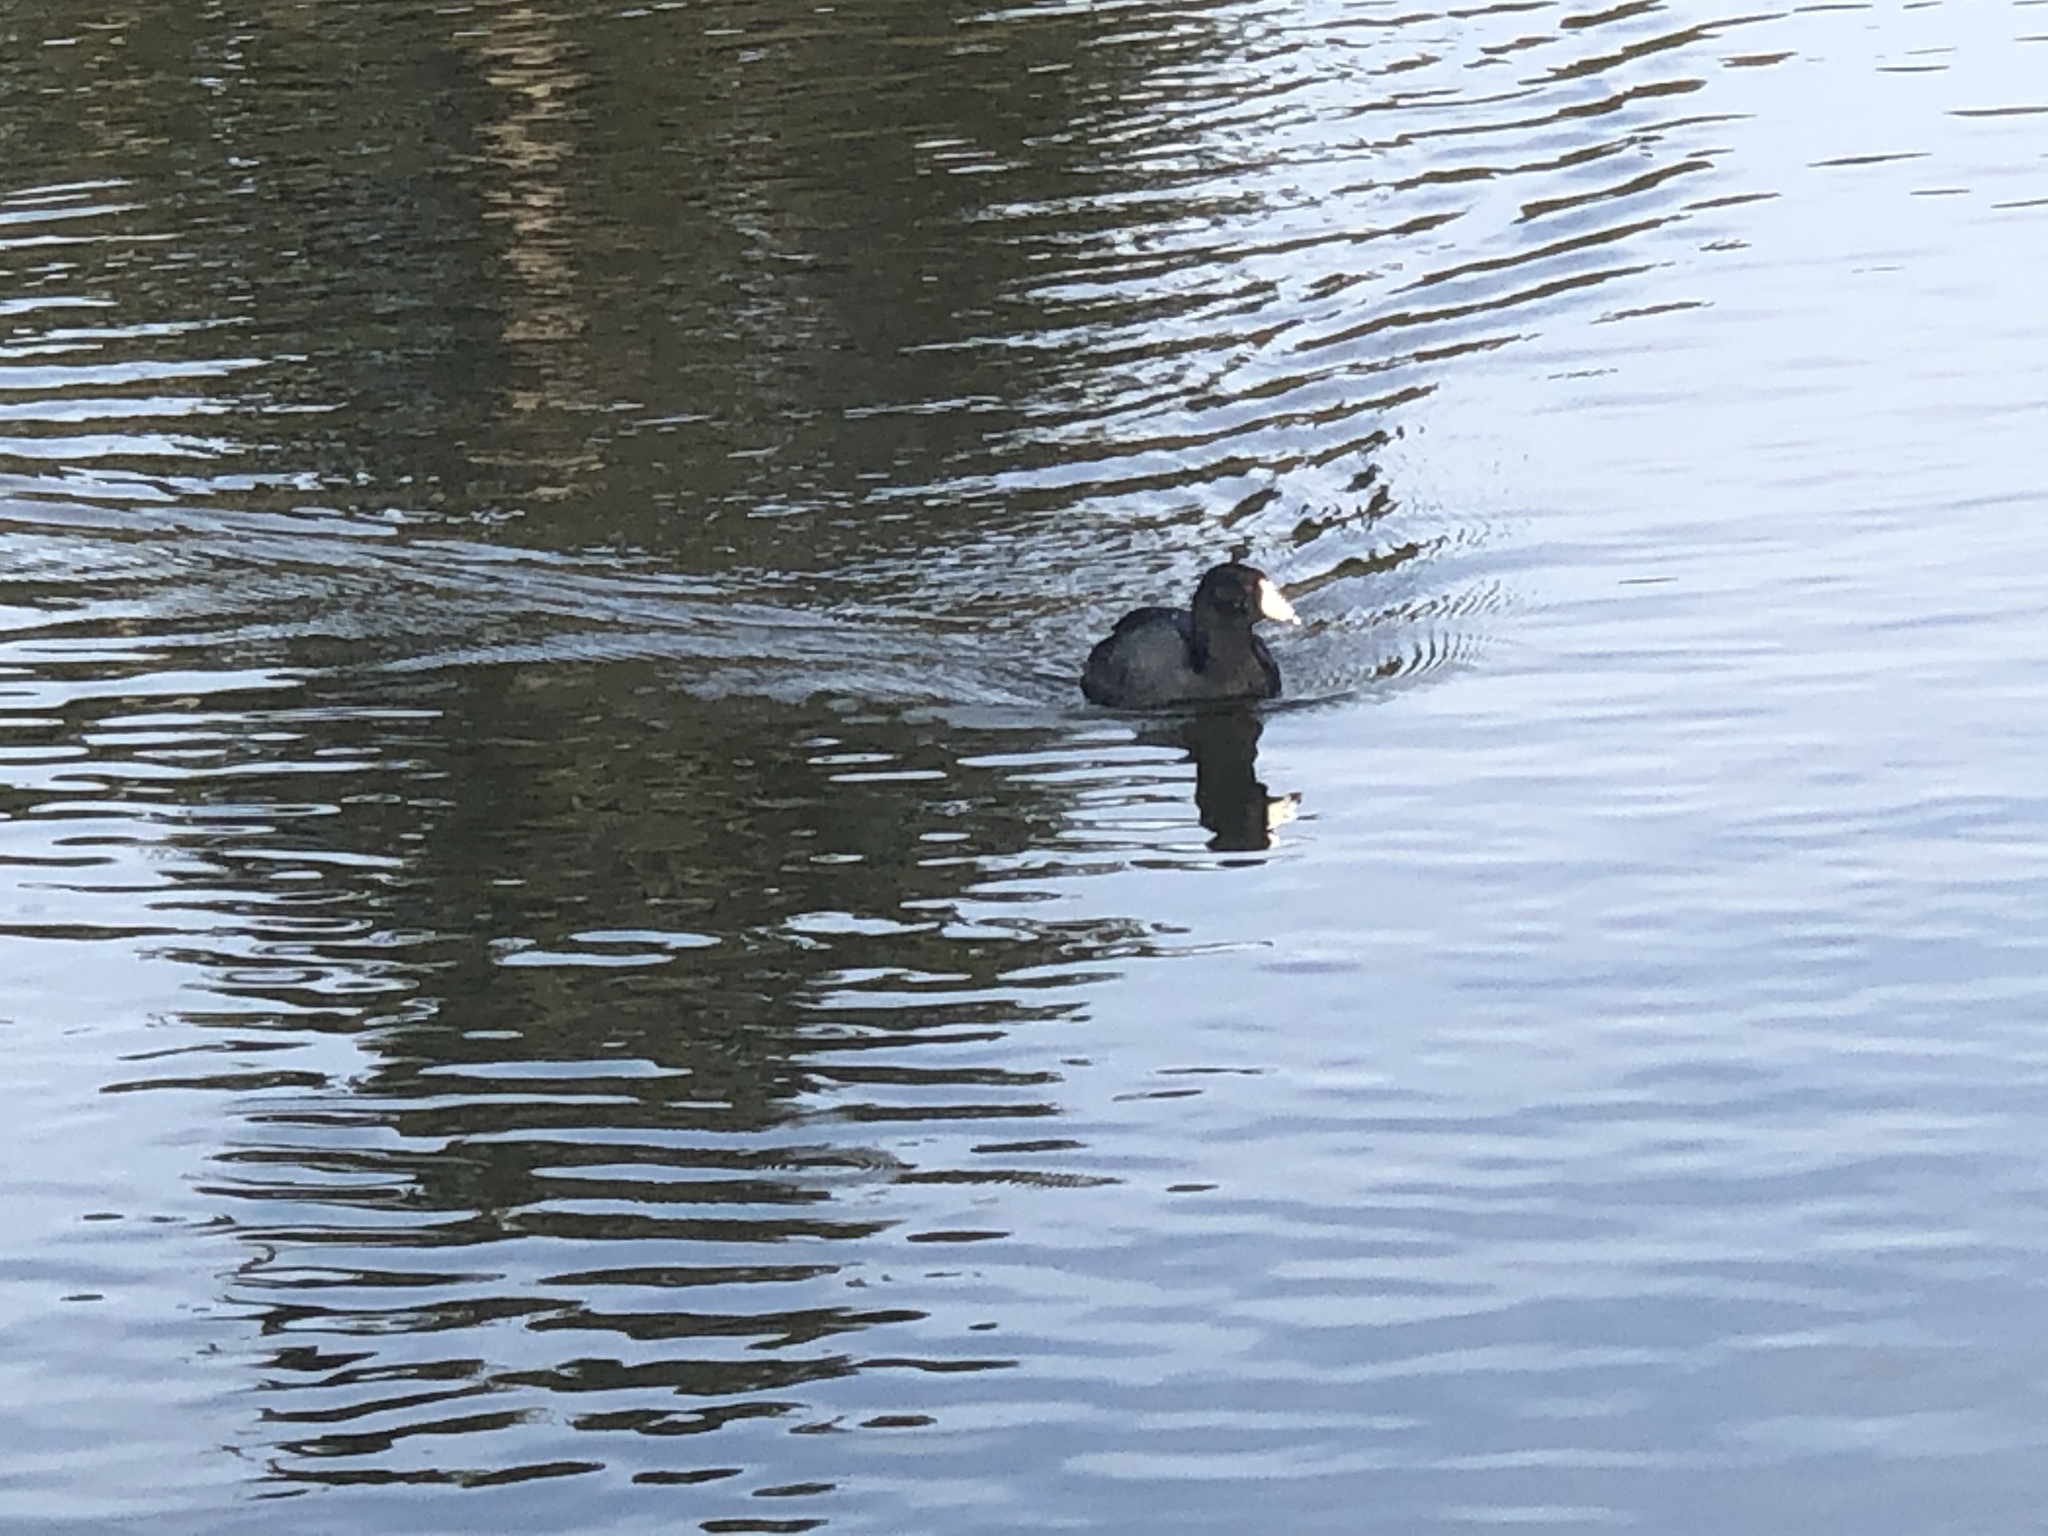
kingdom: Animalia
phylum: Chordata
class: Aves
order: Gruiformes
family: Rallidae
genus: Fulica
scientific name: Fulica americana
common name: American coot
